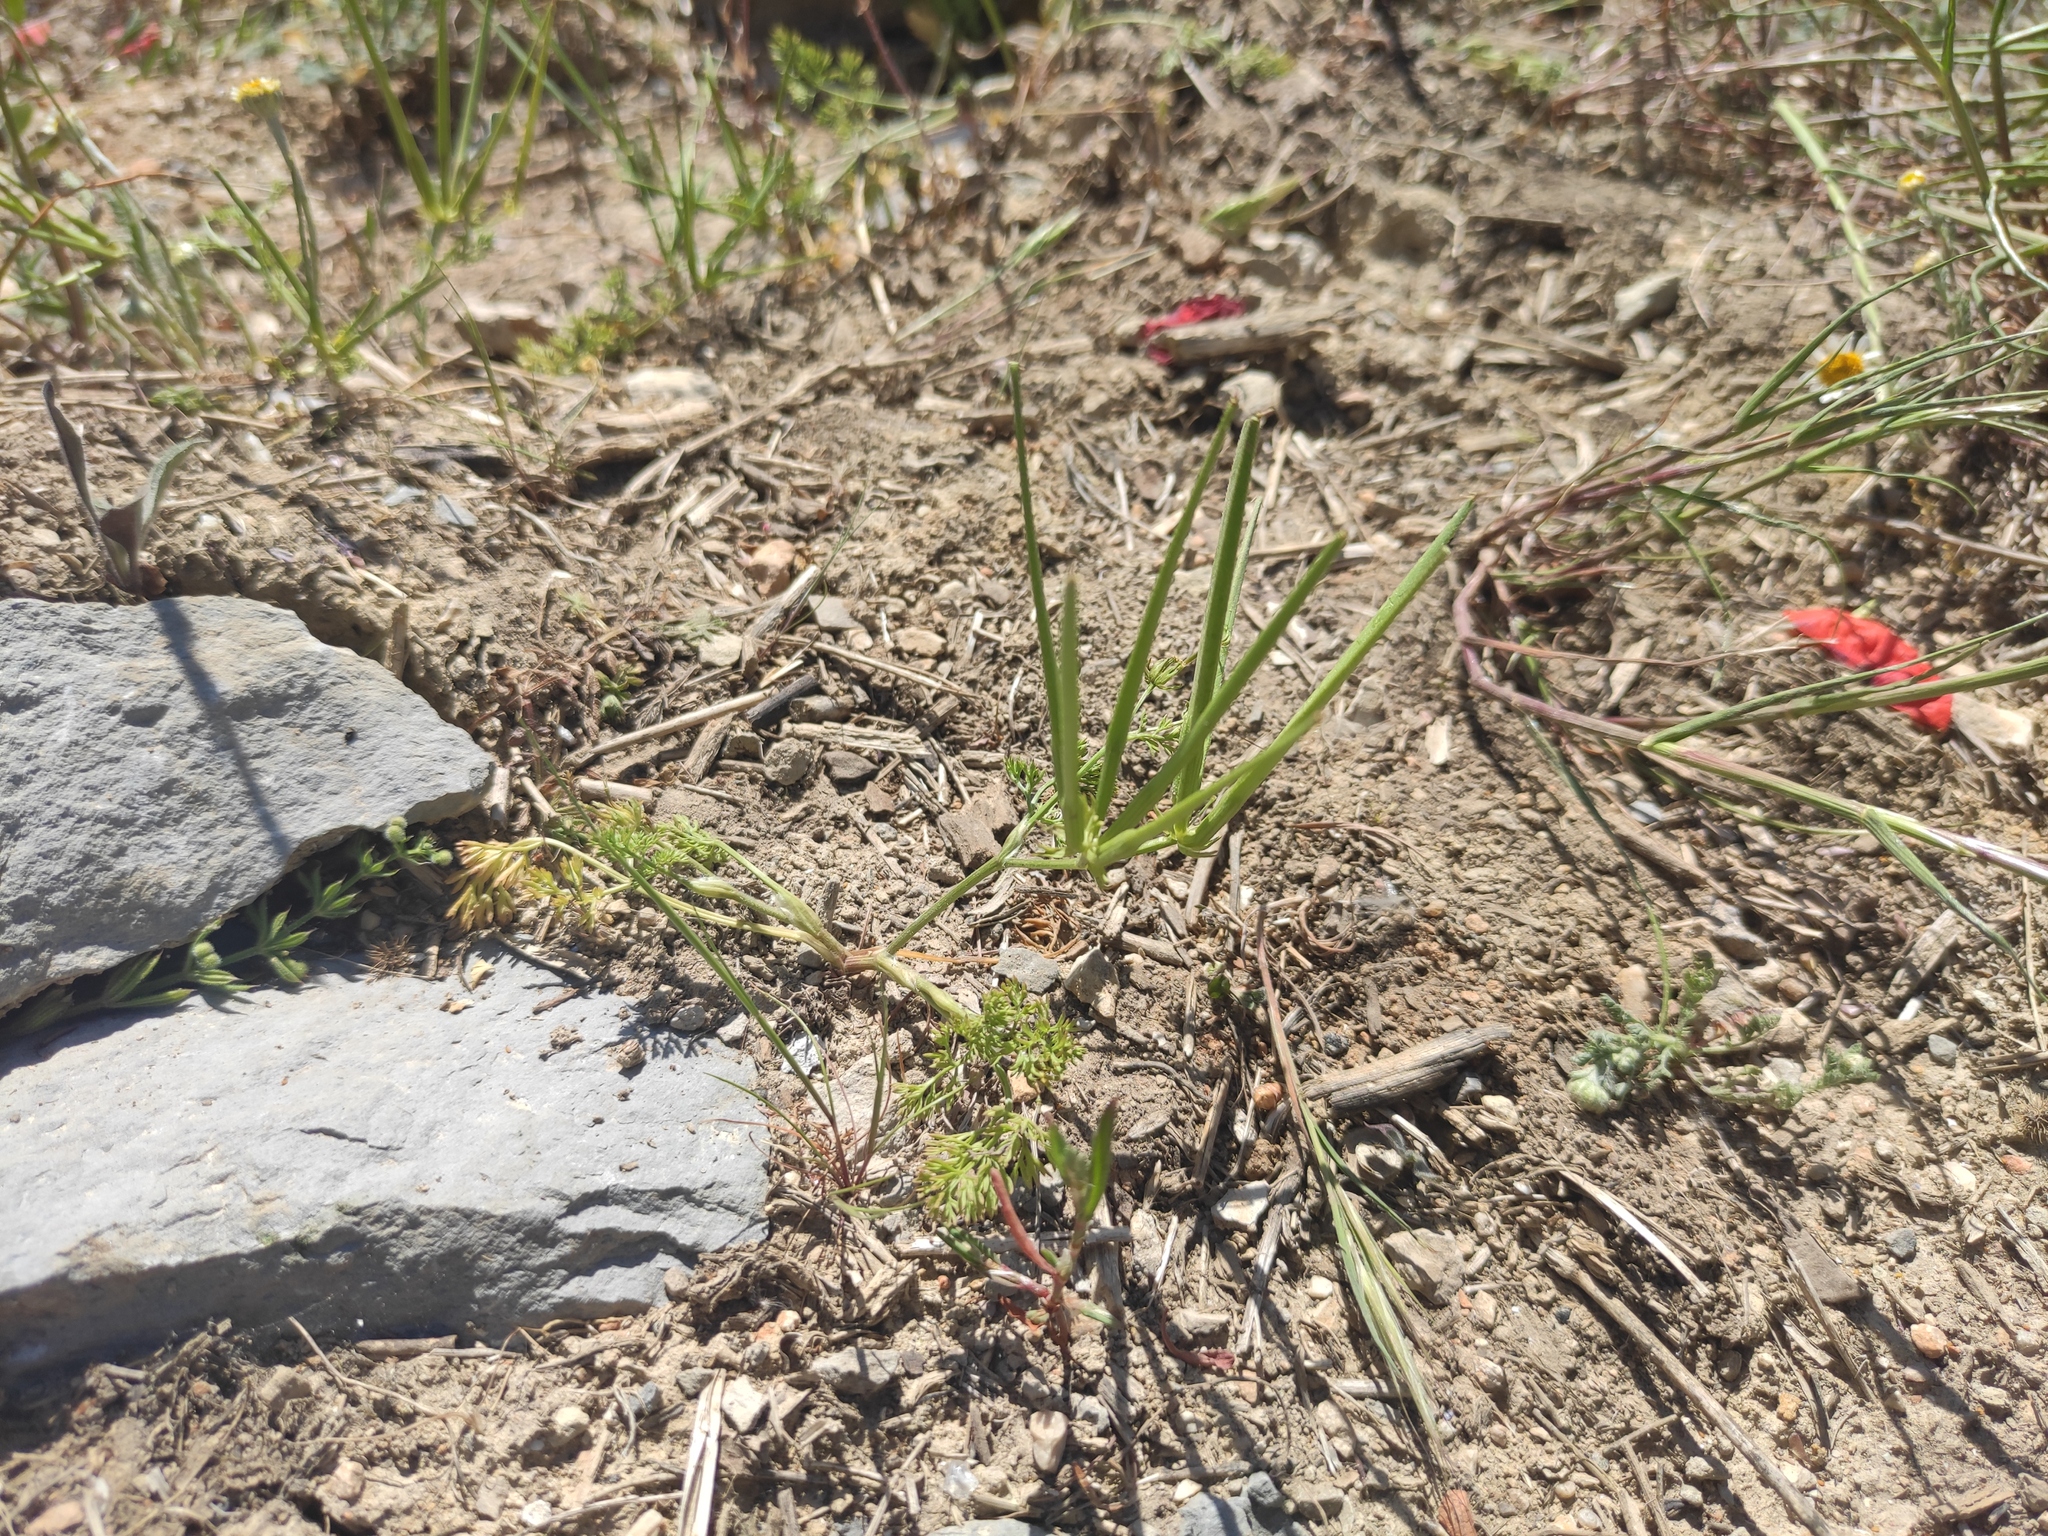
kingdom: Plantae
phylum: Tracheophyta
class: Magnoliopsida
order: Apiales
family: Apiaceae
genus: Scandix
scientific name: Scandix pecten-veneris
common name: Shepherd's-needle
